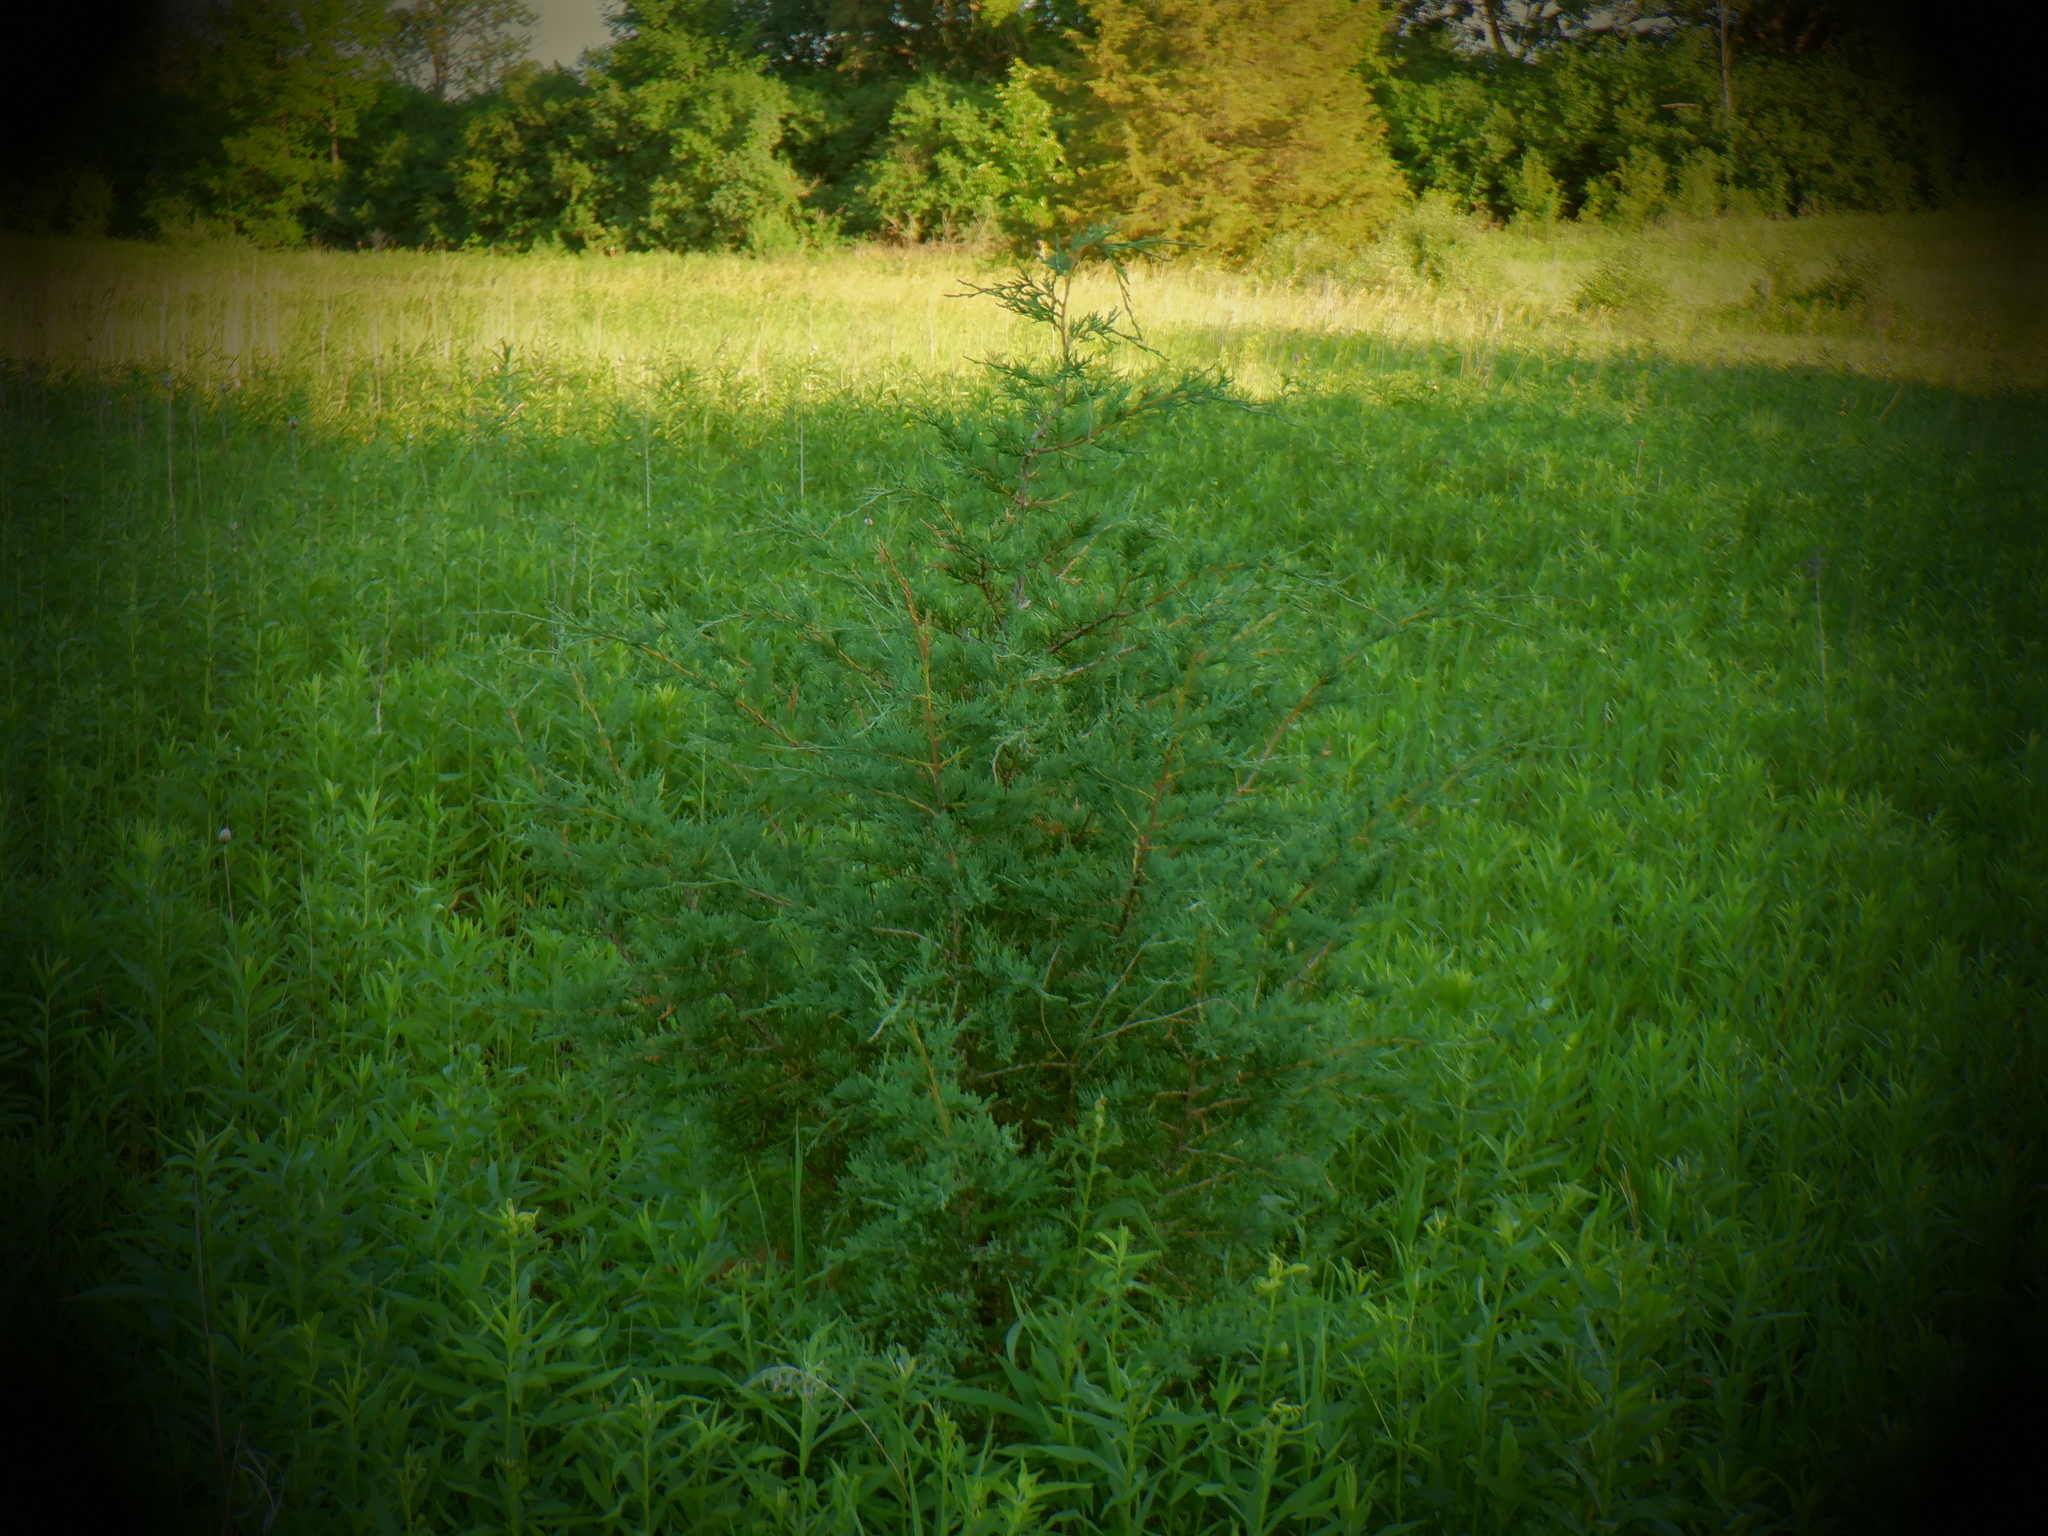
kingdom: Plantae
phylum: Tracheophyta
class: Pinopsida
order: Pinales
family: Cupressaceae
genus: Juniperus
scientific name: Juniperus virginiana
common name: Red juniper
